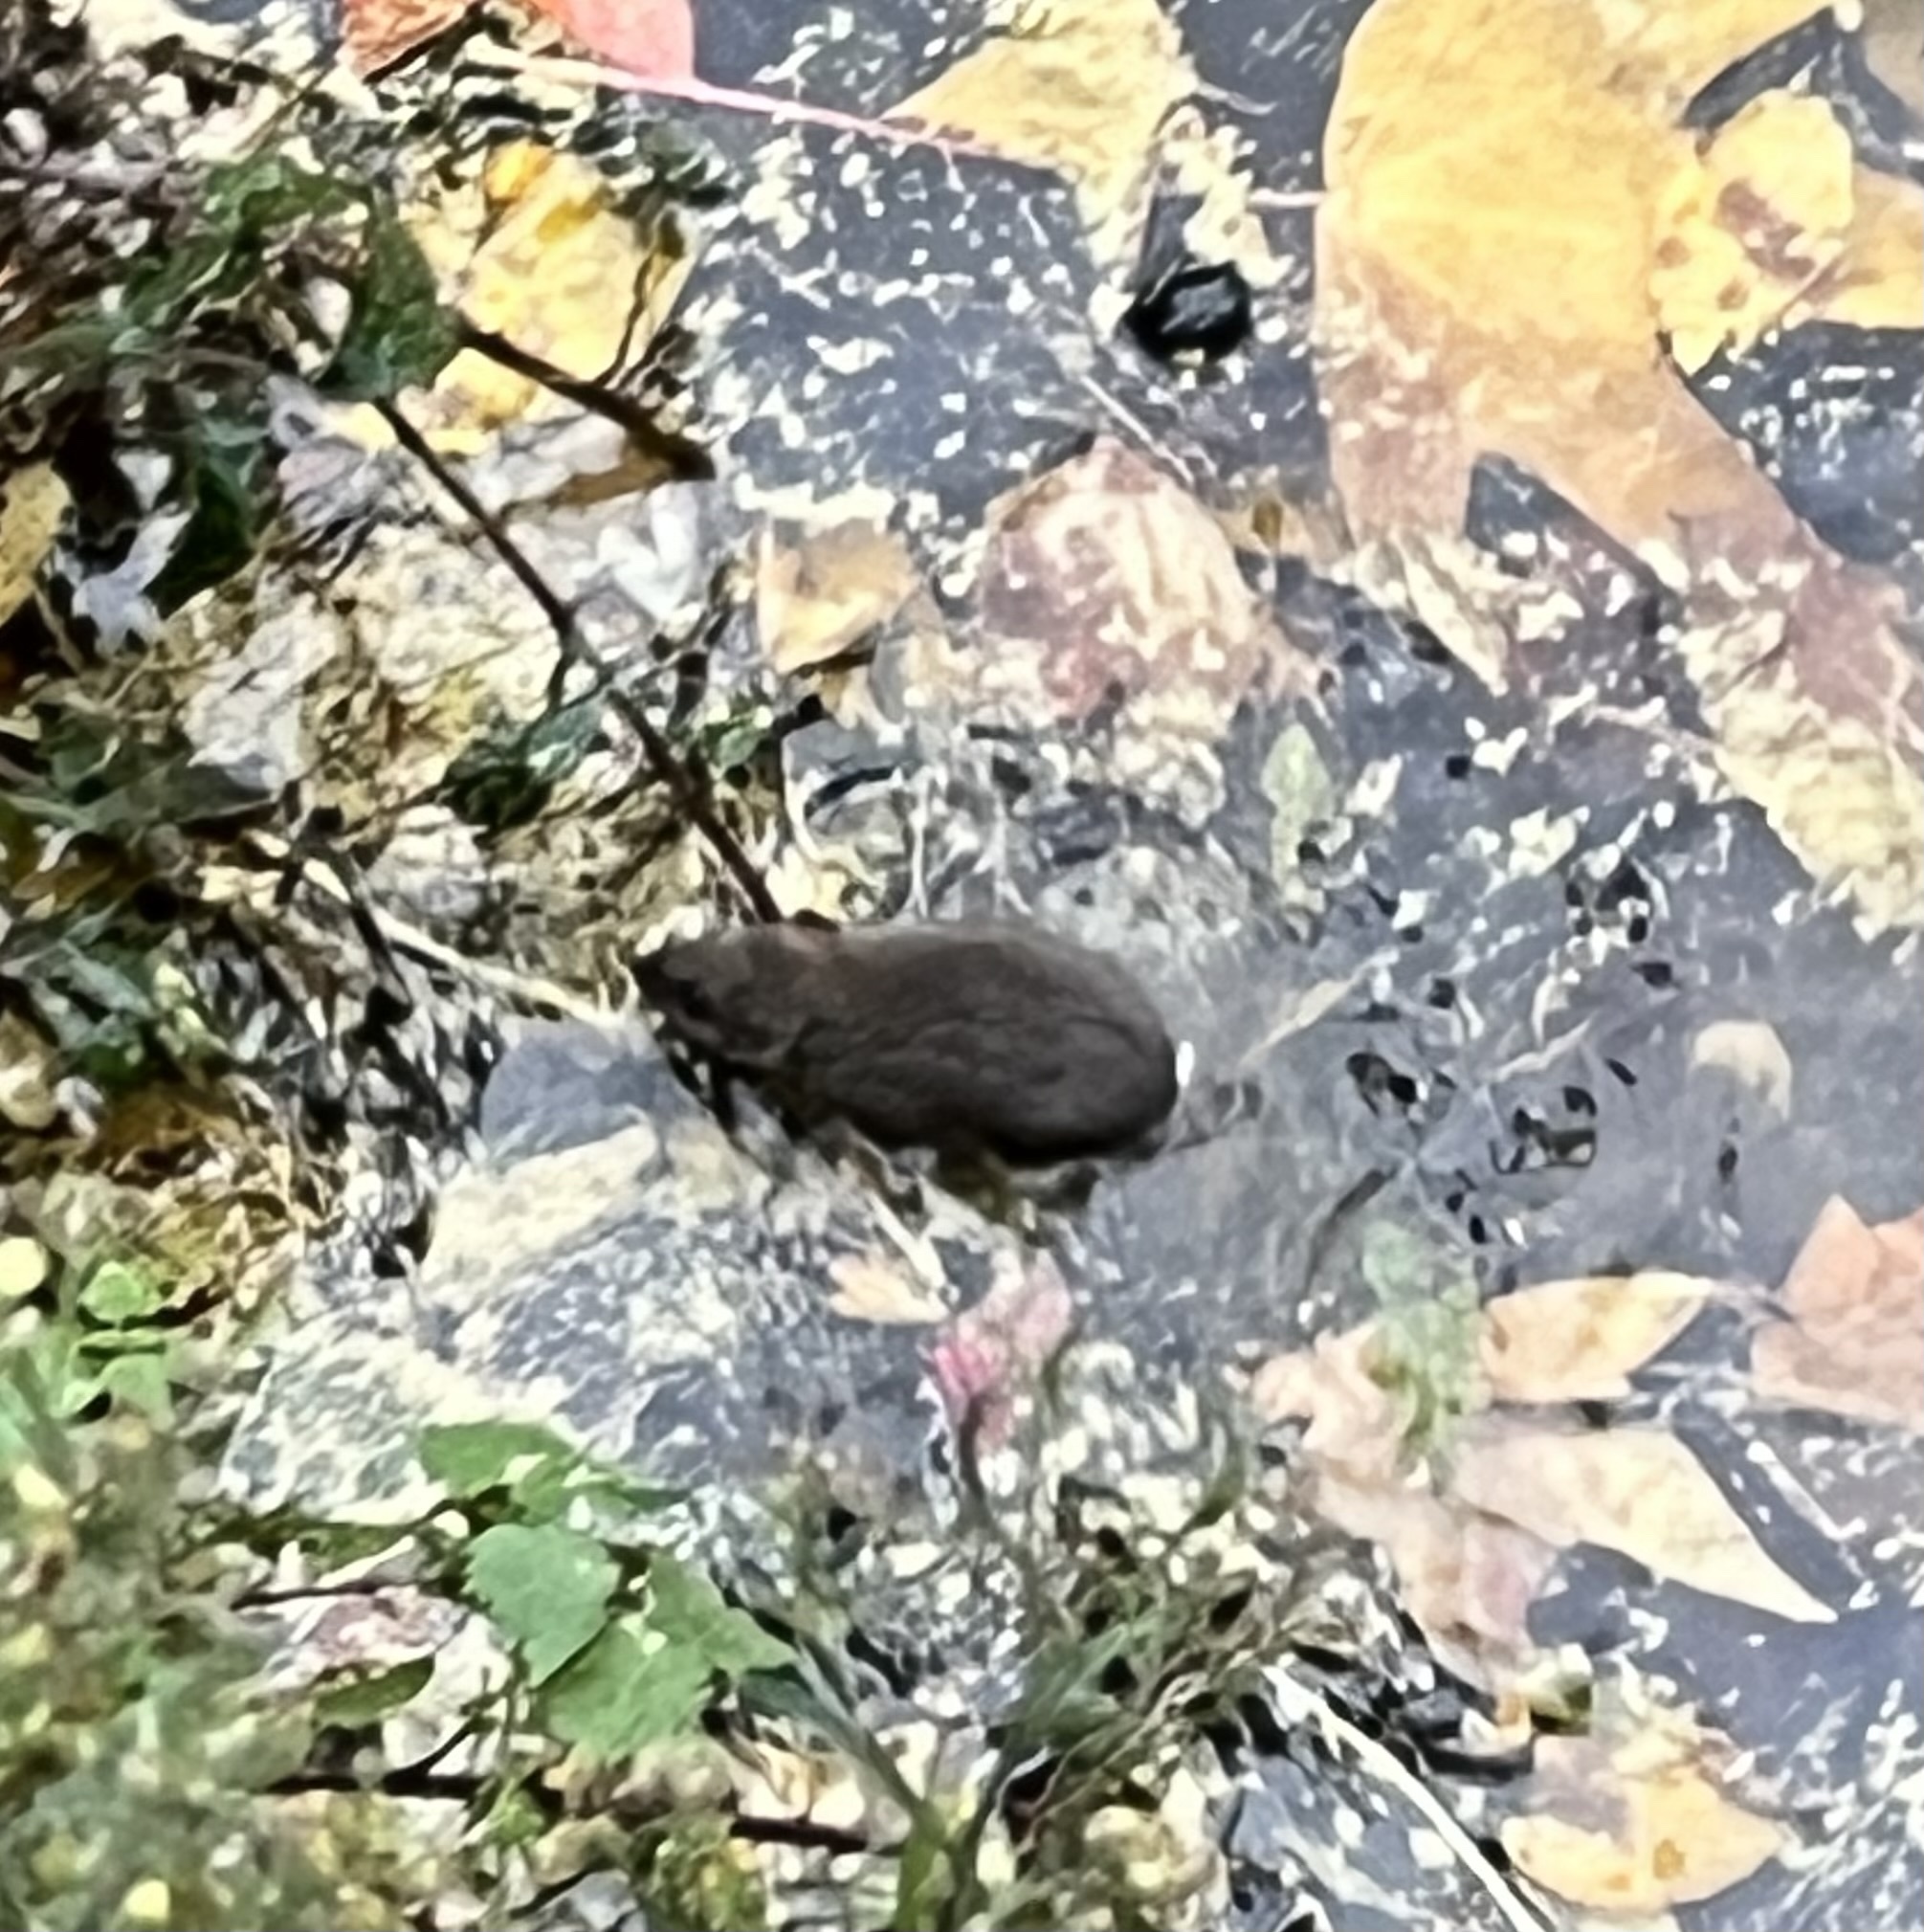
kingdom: Animalia
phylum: Chordata
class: Mammalia
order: Rodentia
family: Muridae
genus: Rattus
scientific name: Rattus norvegicus
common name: Brown rat
